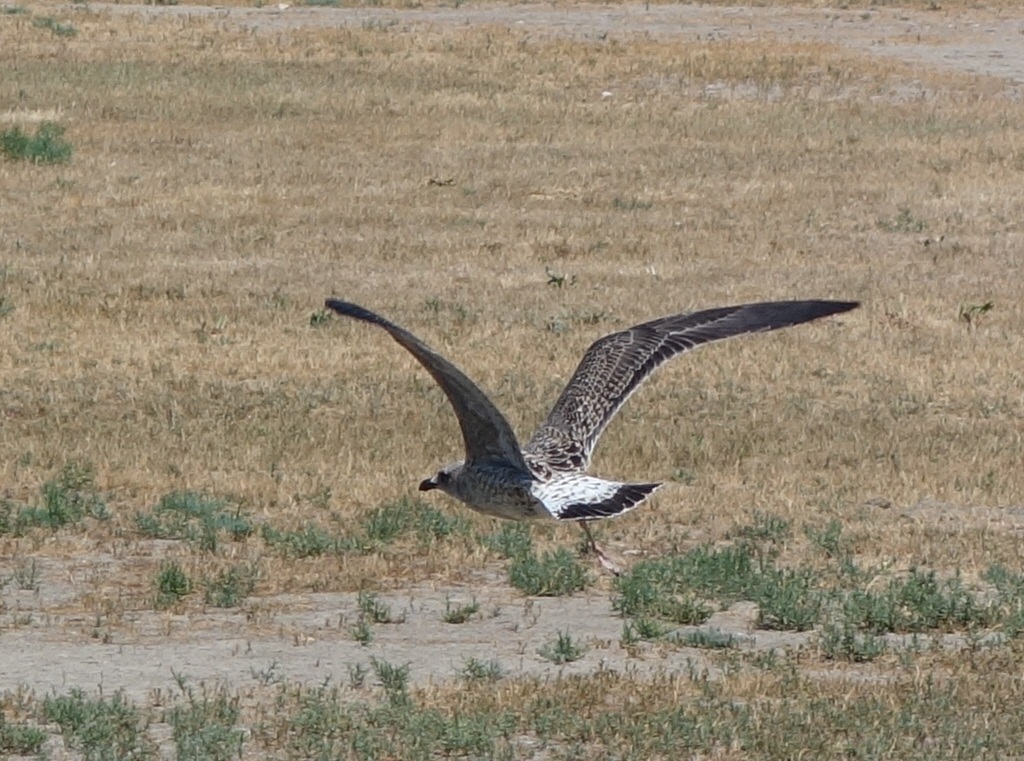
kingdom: Animalia
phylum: Chordata
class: Aves
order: Charadriiformes
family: Laridae
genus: Larus
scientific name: Larus michahellis
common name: Yellow-legged gull
